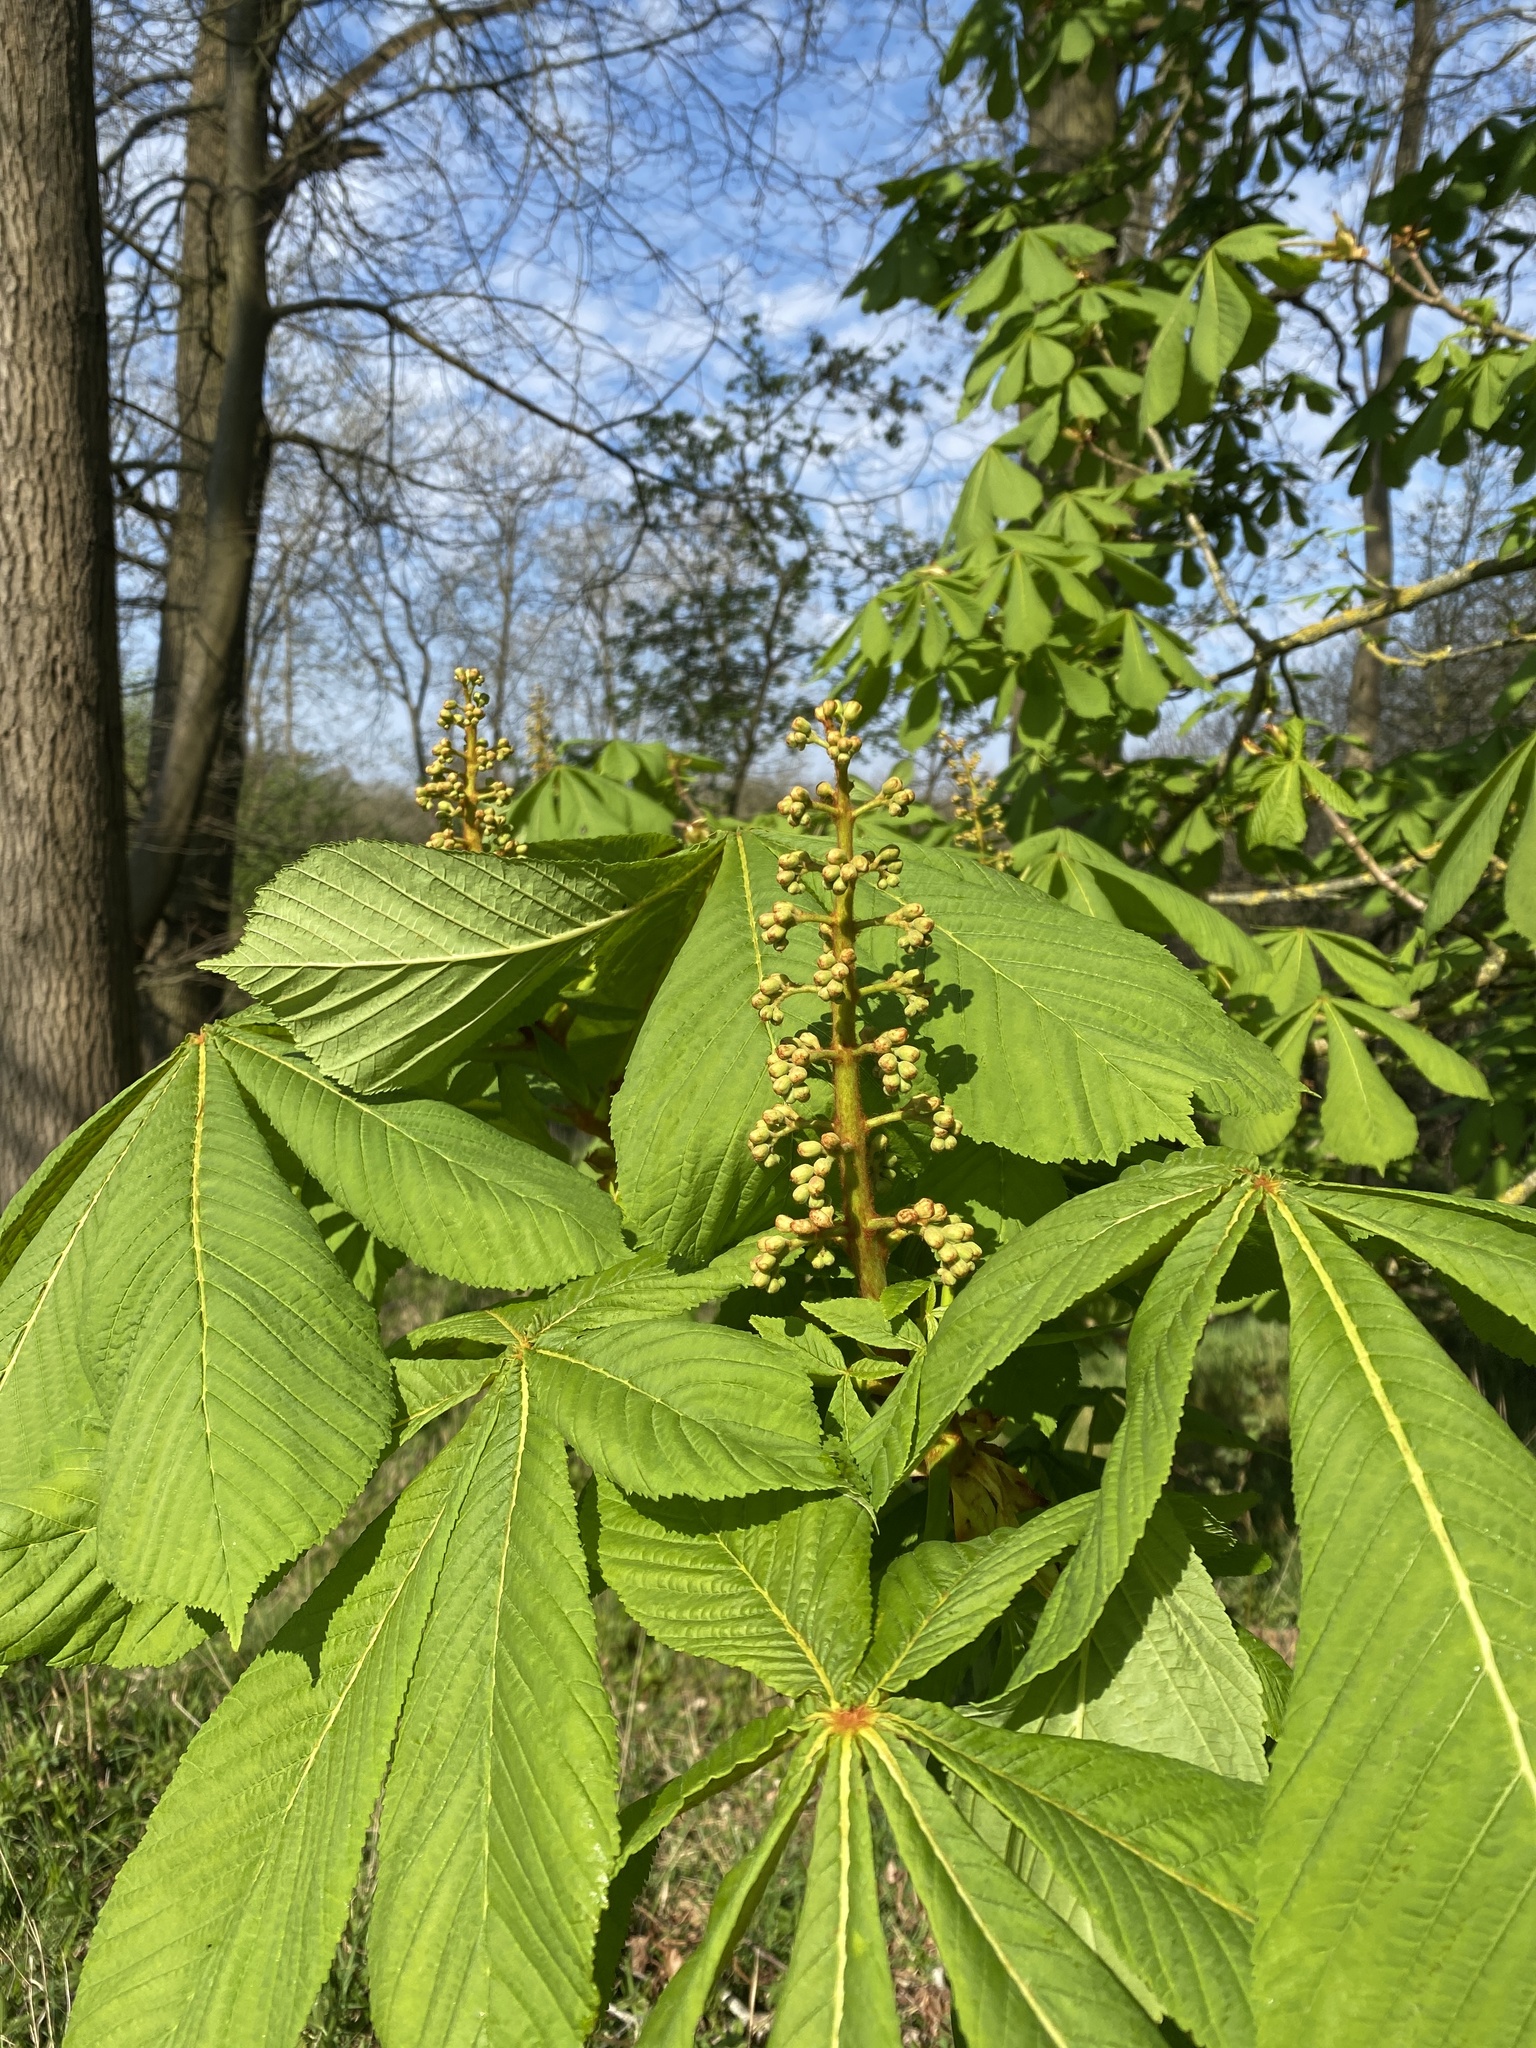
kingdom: Plantae
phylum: Tracheophyta
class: Magnoliopsida
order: Sapindales
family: Sapindaceae
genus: Aesculus
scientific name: Aesculus hippocastanum
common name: Horse-chestnut
